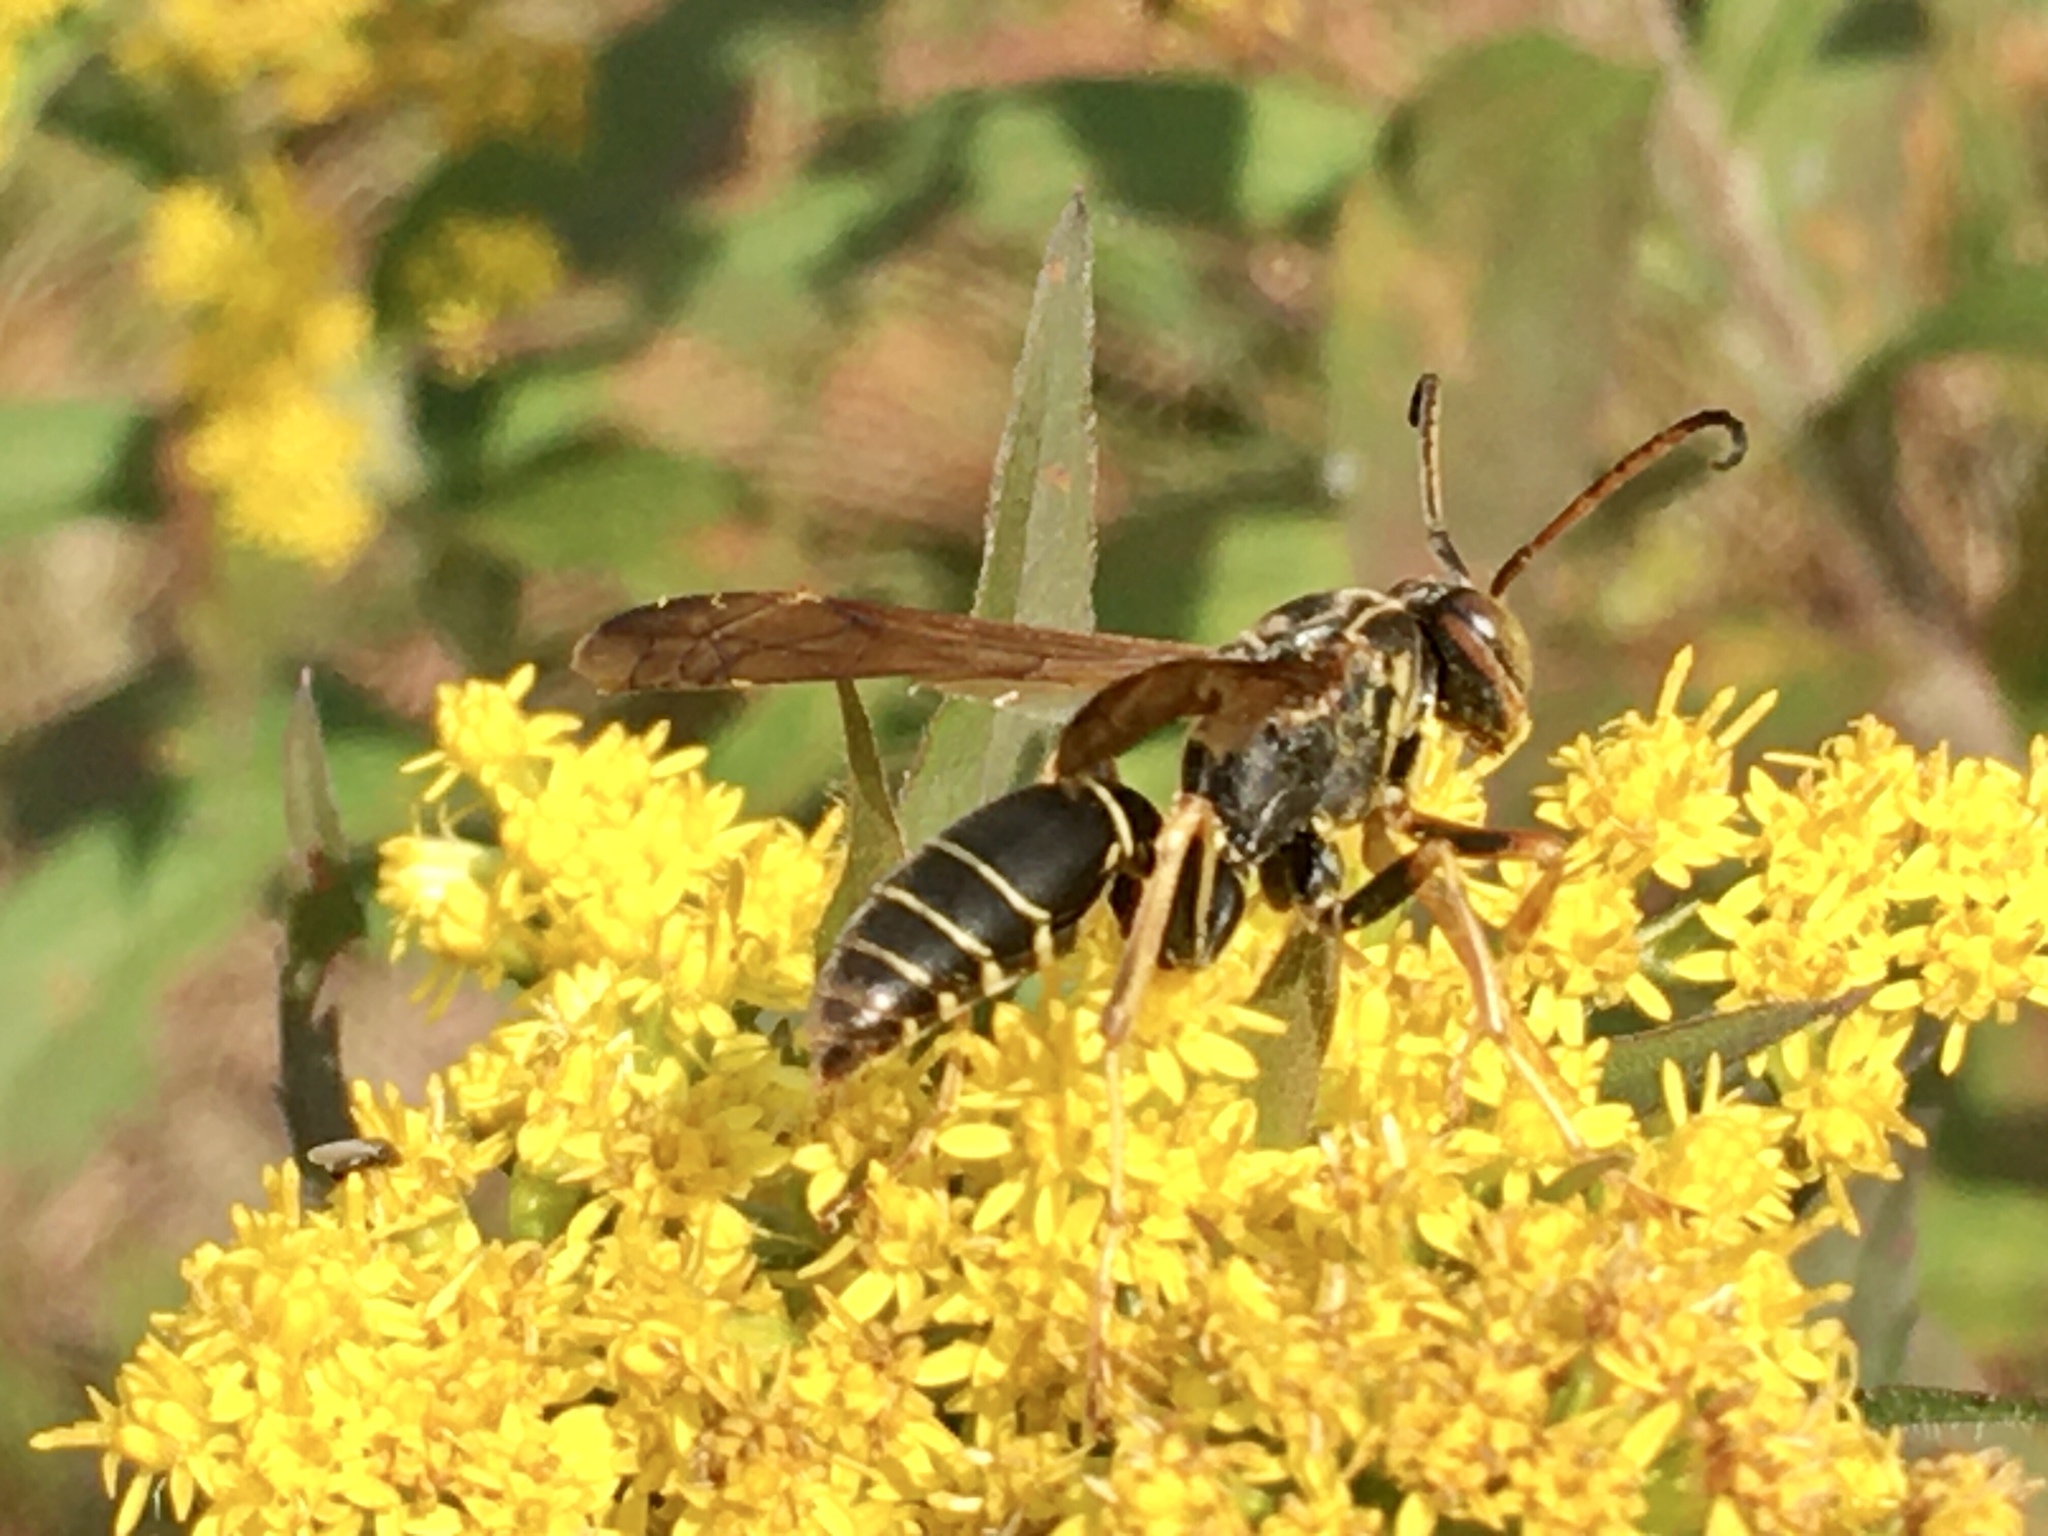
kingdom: Animalia
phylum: Arthropoda
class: Insecta
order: Hymenoptera
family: Eumenidae
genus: Polistes
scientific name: Polistes fuscatus
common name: Dark paper wasp
